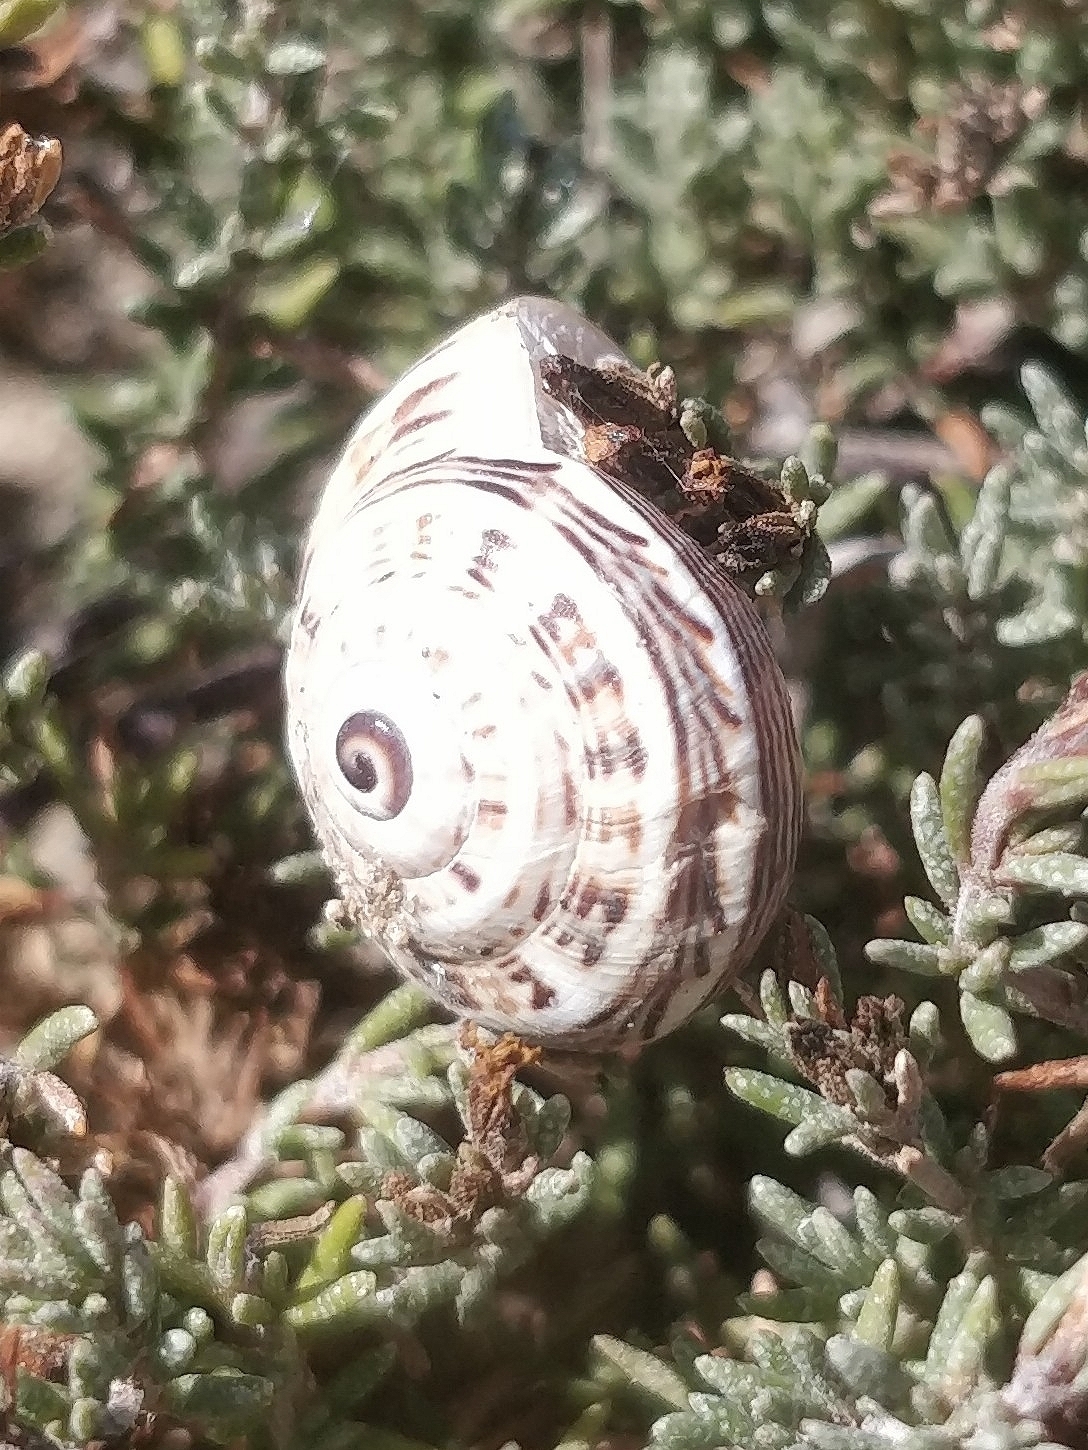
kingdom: Animalia
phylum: Mollusca
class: Gastropoda
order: Stylommatophora
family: Helicidae
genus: Theba
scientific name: Theba pisana
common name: White snail
